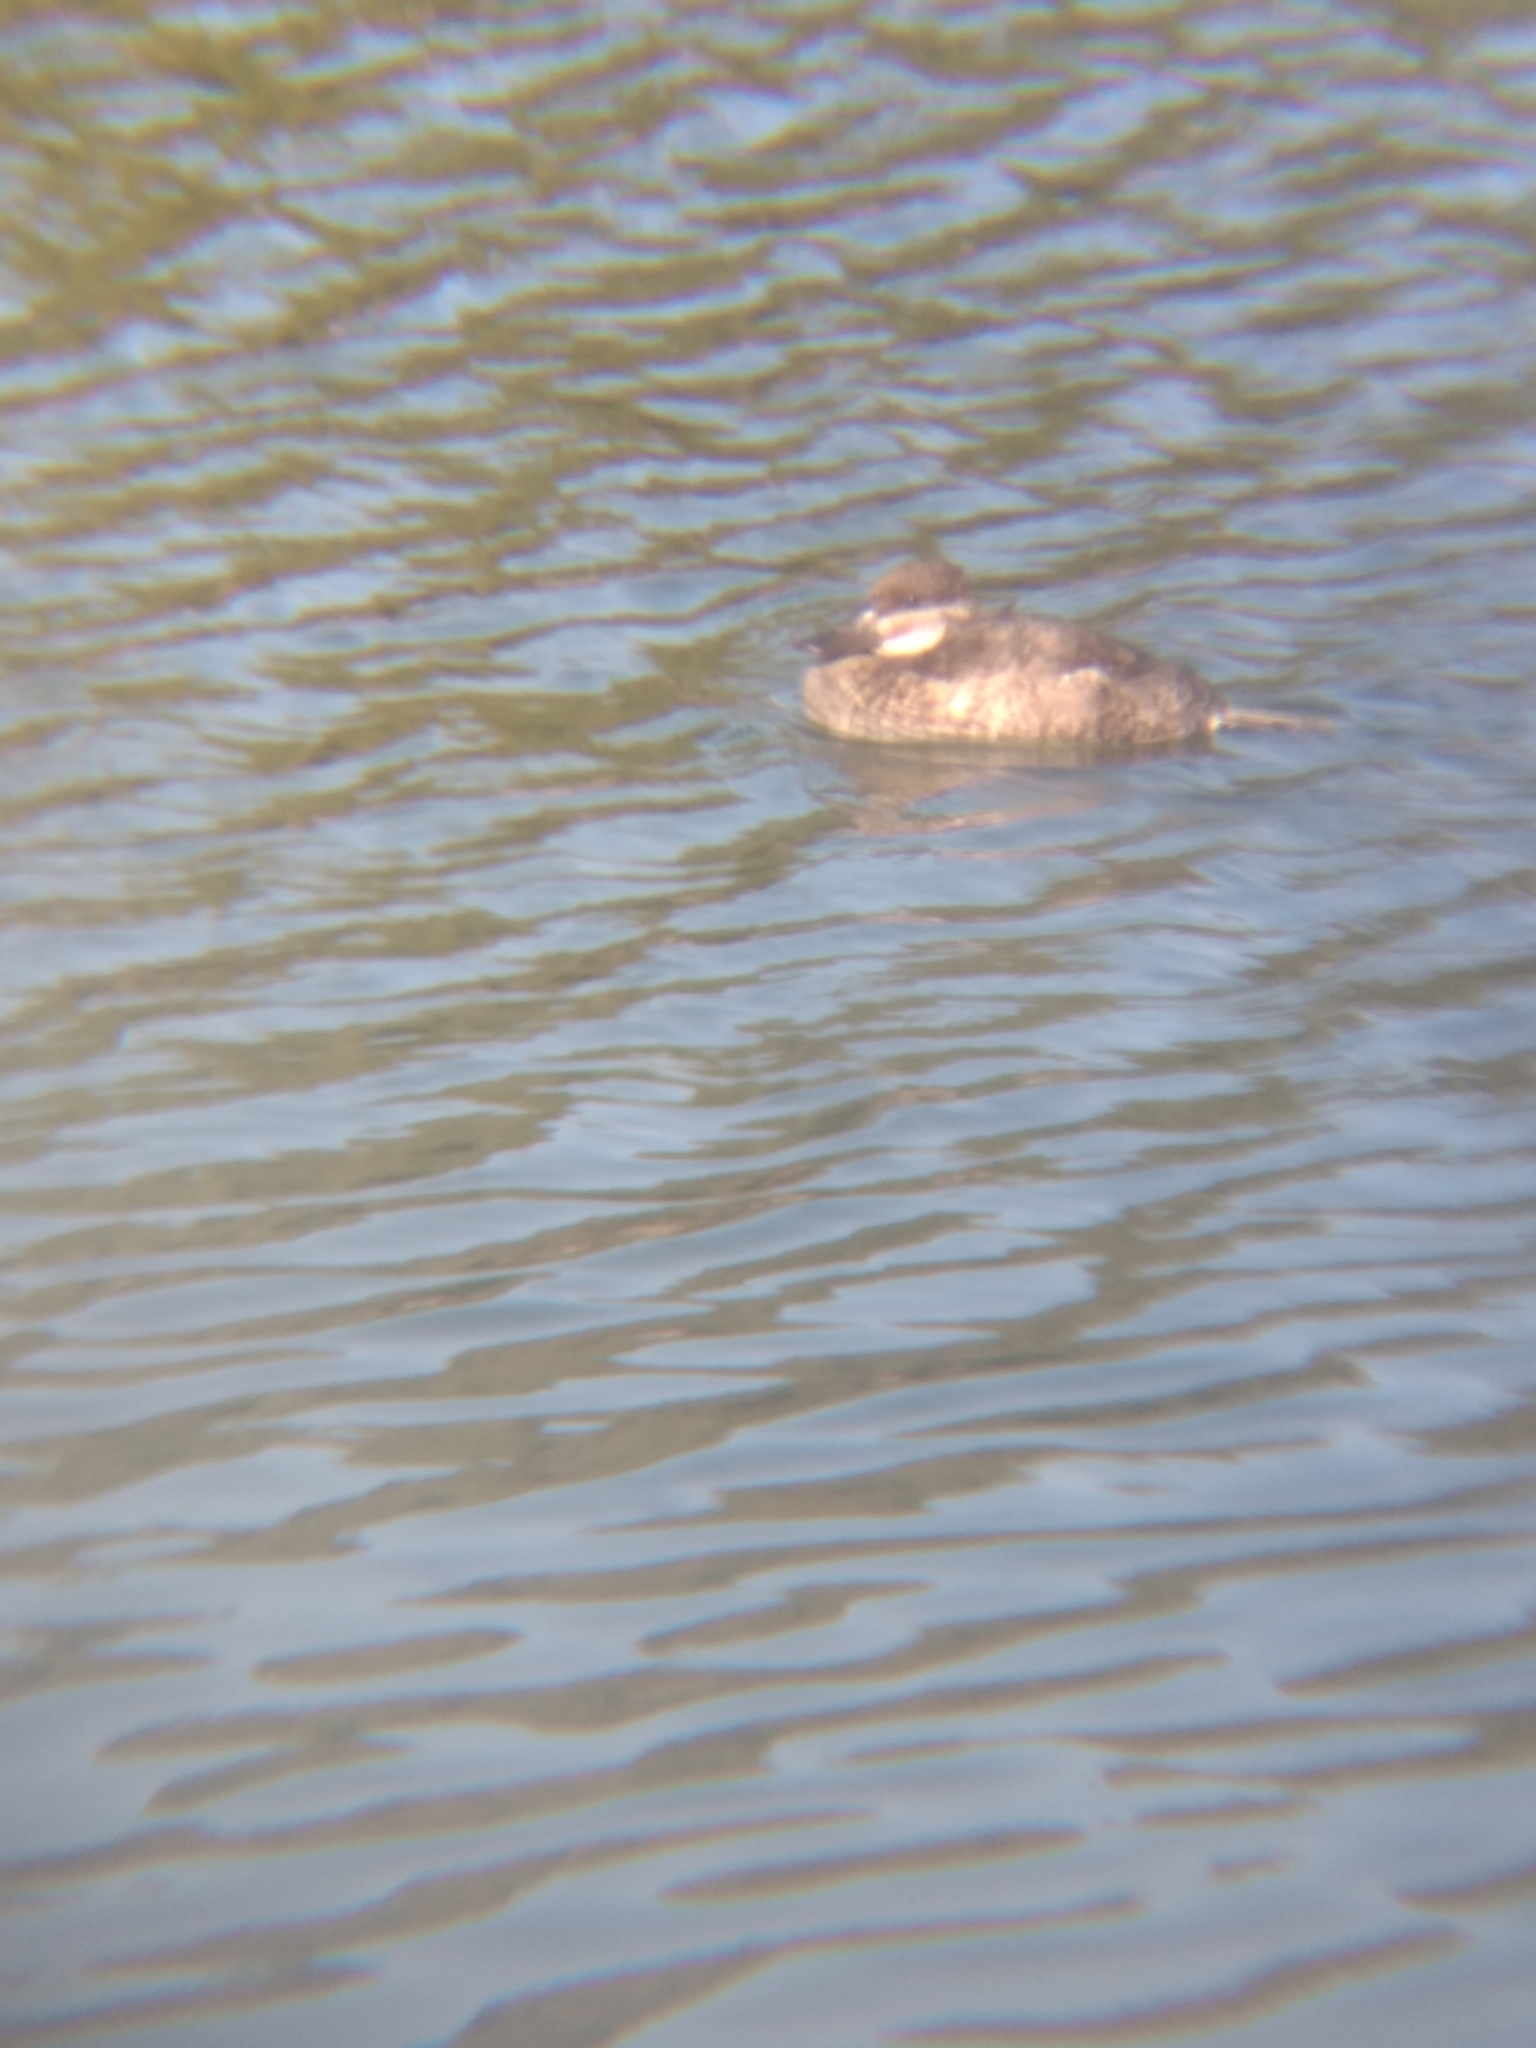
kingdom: Animalia
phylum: Chordata
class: Aves
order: Anseriformes
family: Anatidae
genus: Oxyura
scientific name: Oxyura jamaicensis
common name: Ruddy duck
